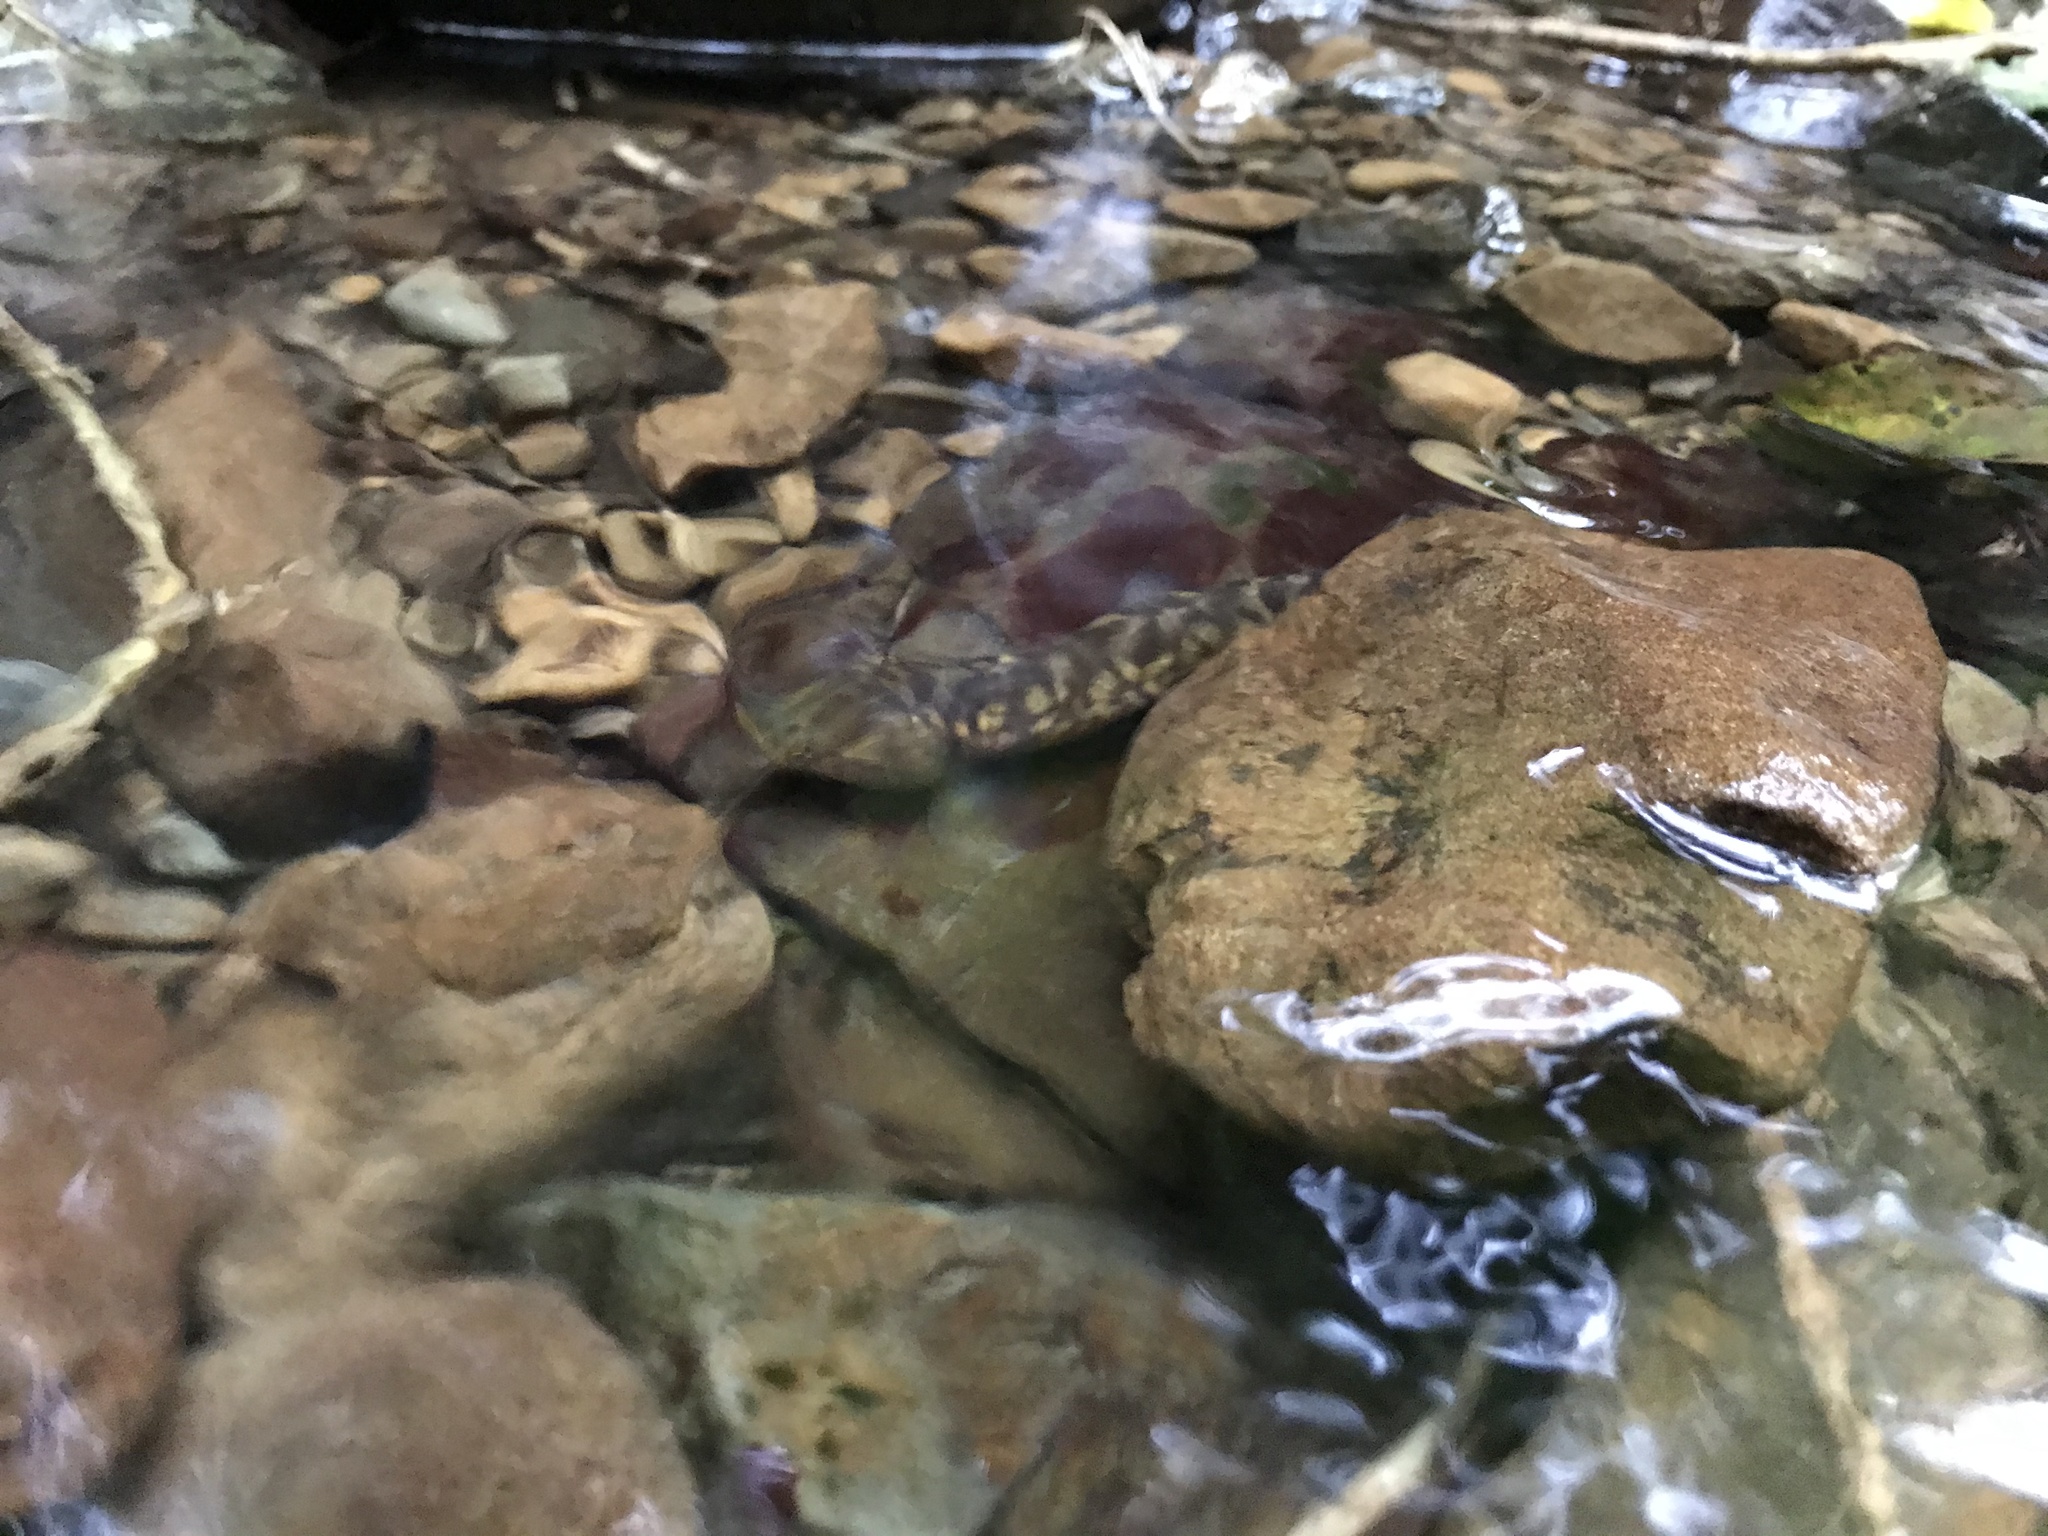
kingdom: Animalia
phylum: Chordata
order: Osmeriformes
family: Galaxiidae
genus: Galaxias
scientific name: Galaxias brevipinnis
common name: Koaro
